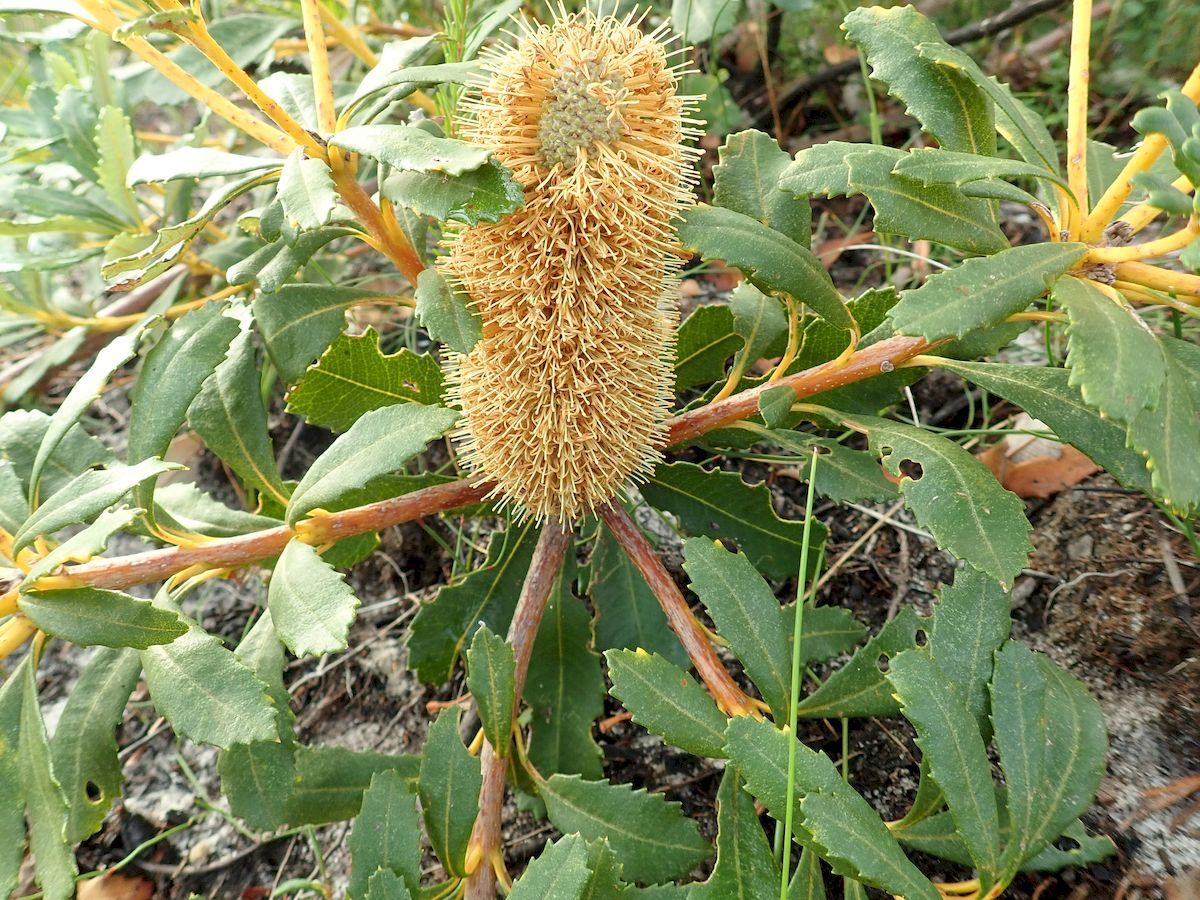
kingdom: Plantae
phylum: Tracheophyta
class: Magnoliopsida
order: Proteales
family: Proteaceae
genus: Banksia
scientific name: Banksia paludosa
